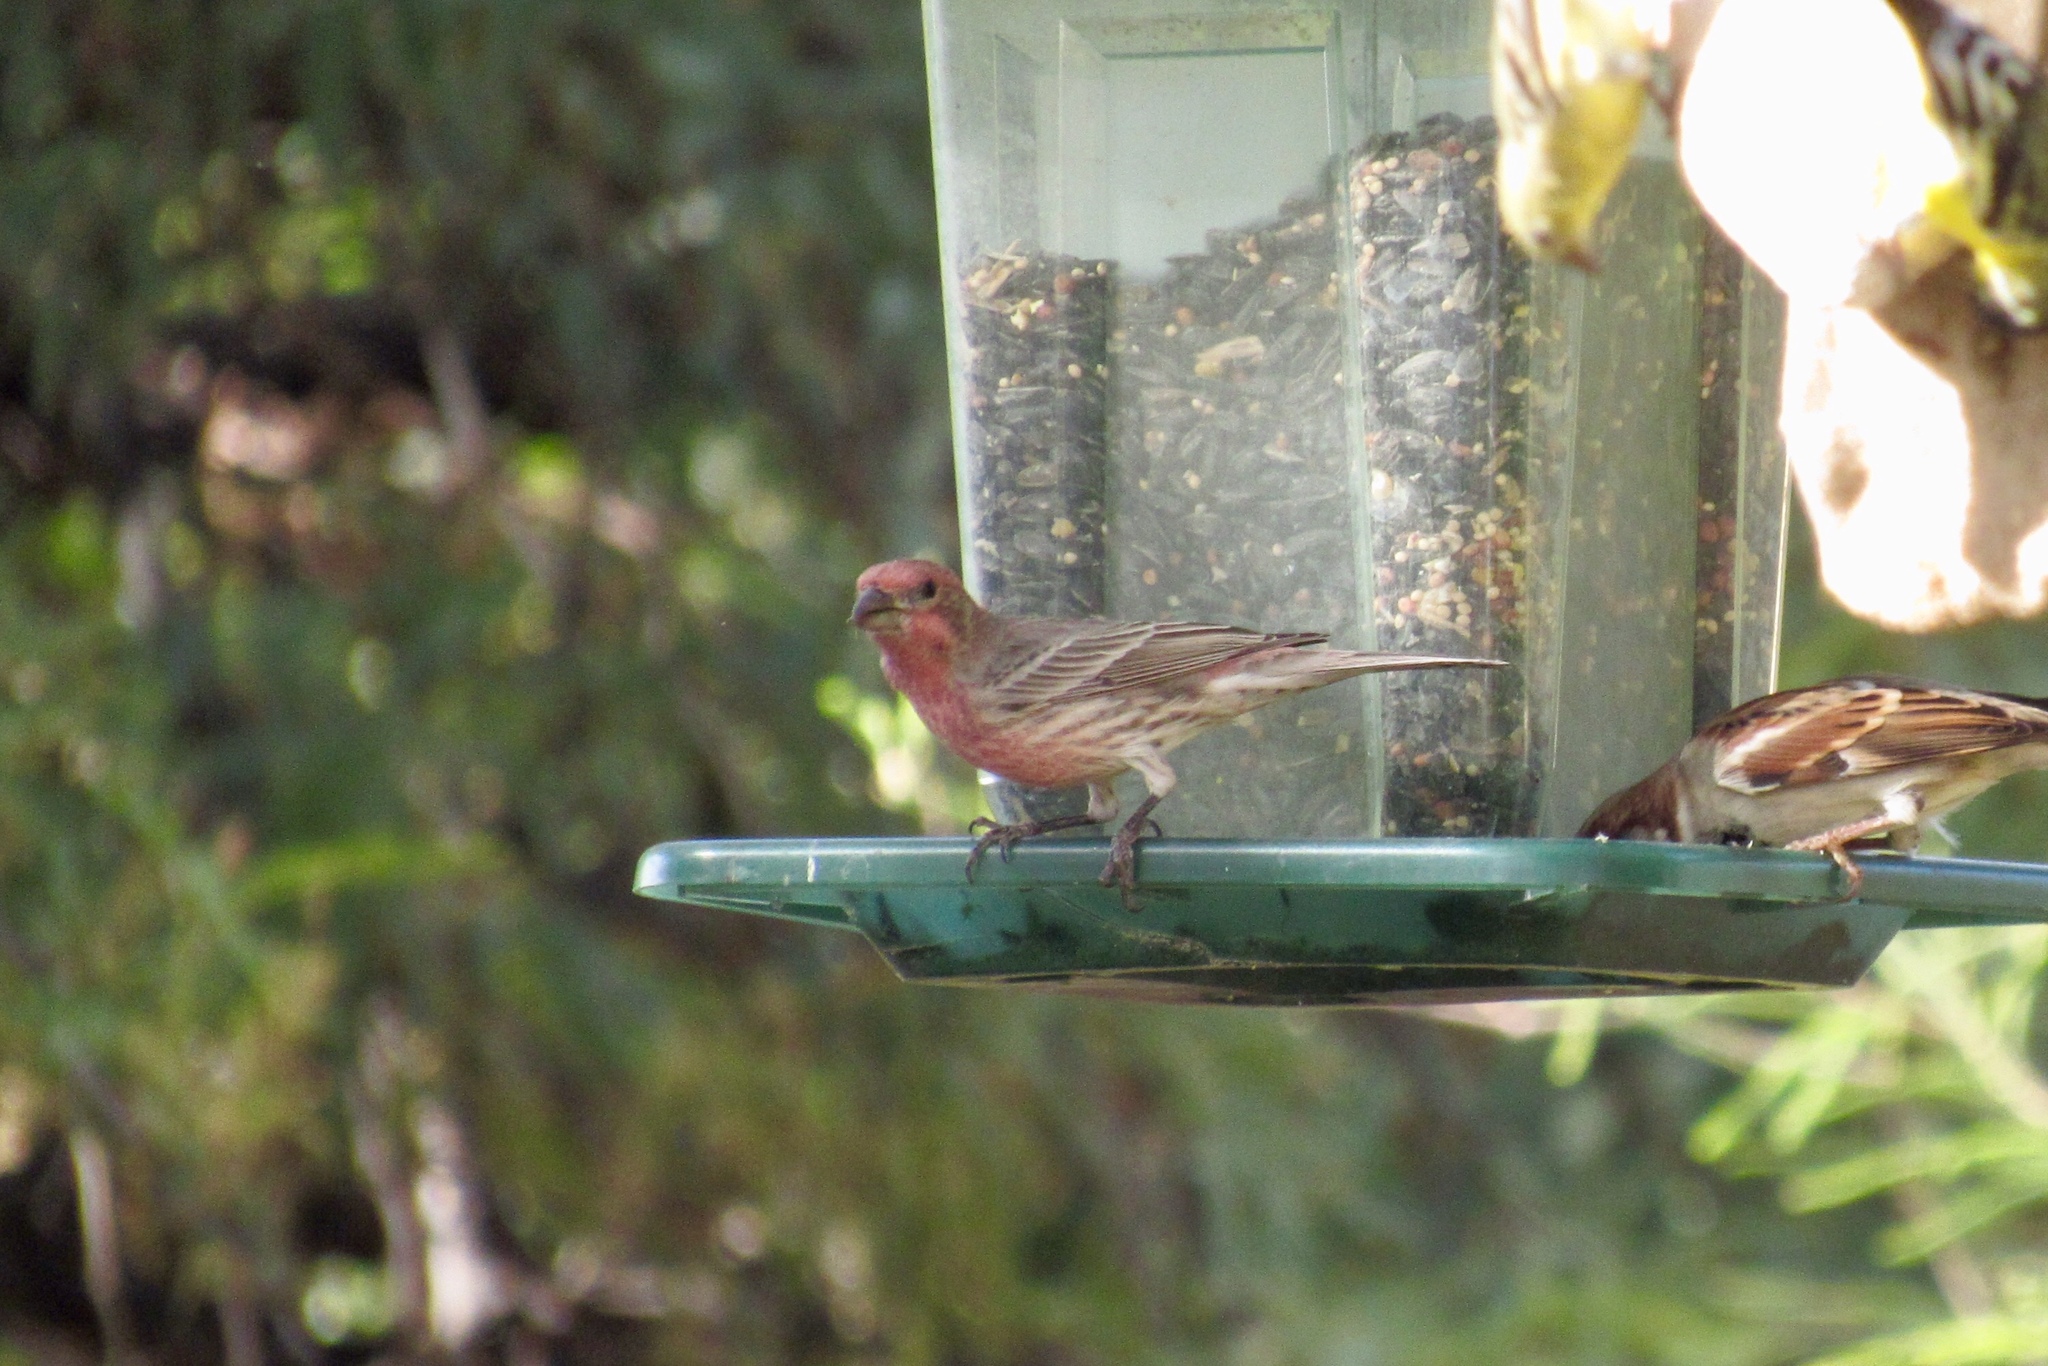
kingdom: Animalia
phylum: Chordata
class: Aves
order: Passeriformes
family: Fringillidae
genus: Haemorhous
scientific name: Haemorhous mexicanus
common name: House finch
